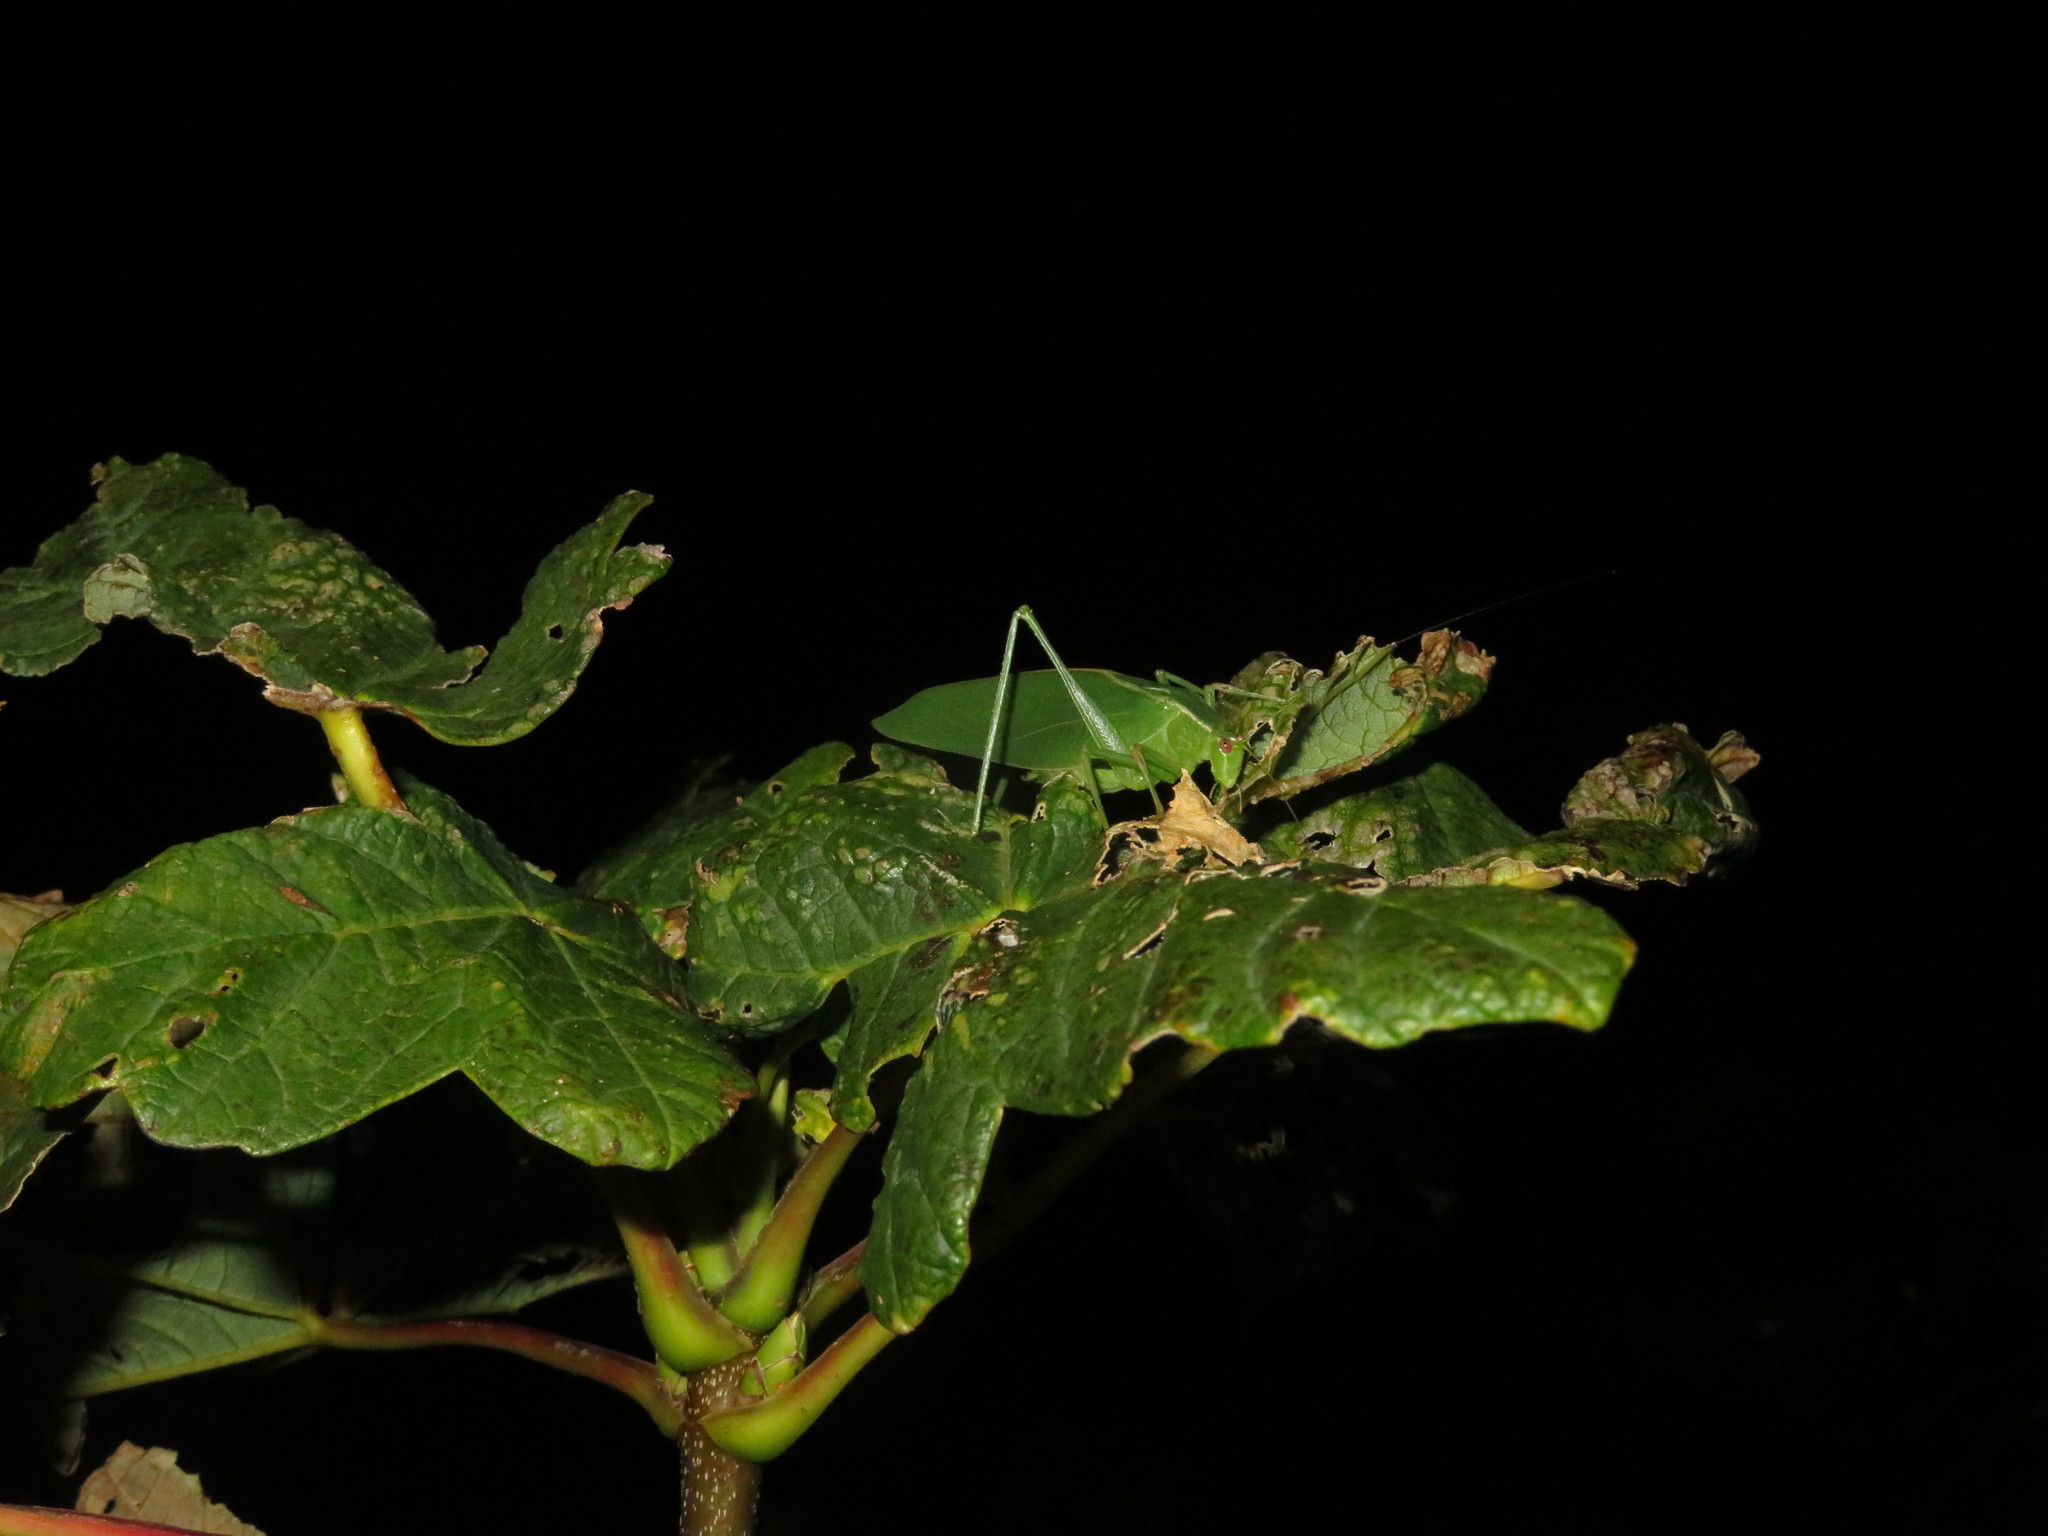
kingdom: Animalia
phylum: Arthropoda
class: Insecta
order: Orthoptera
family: Tettigoniidae
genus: Caedicia
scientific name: Caedicia simplex
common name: Common garden katydid
